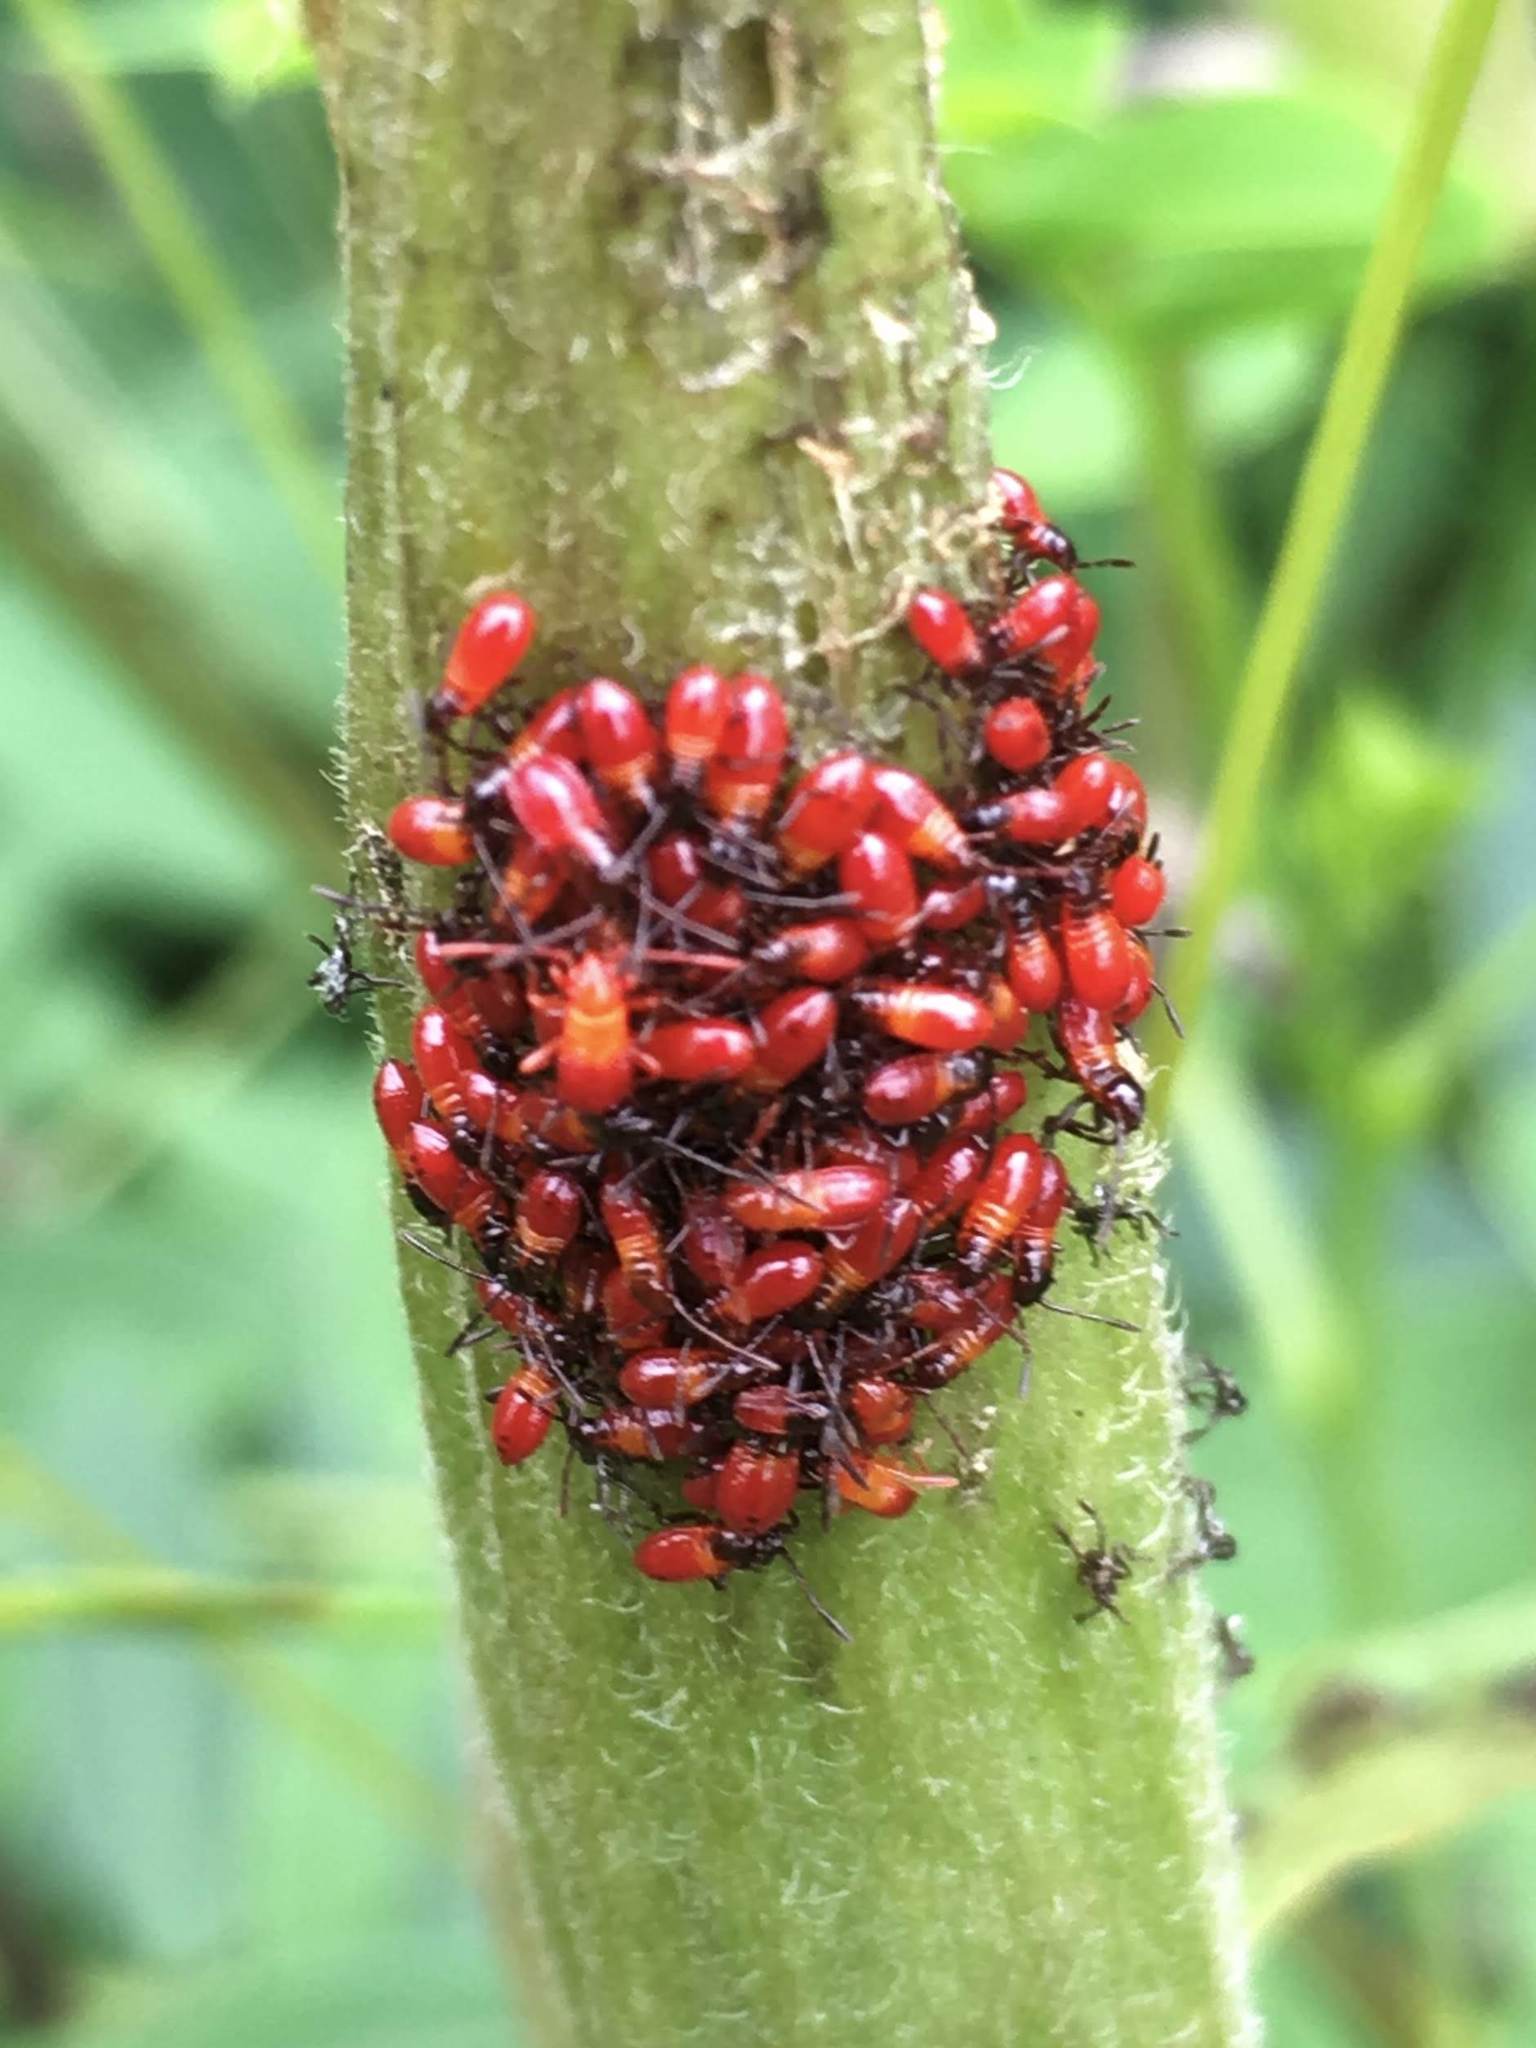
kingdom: Animalia
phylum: Arthropoda
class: Insecta
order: Hemiptera
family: Lygaeidae
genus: Oncopeltus
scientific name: Oncopeltus fasciatus
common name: Large milkweed bug
